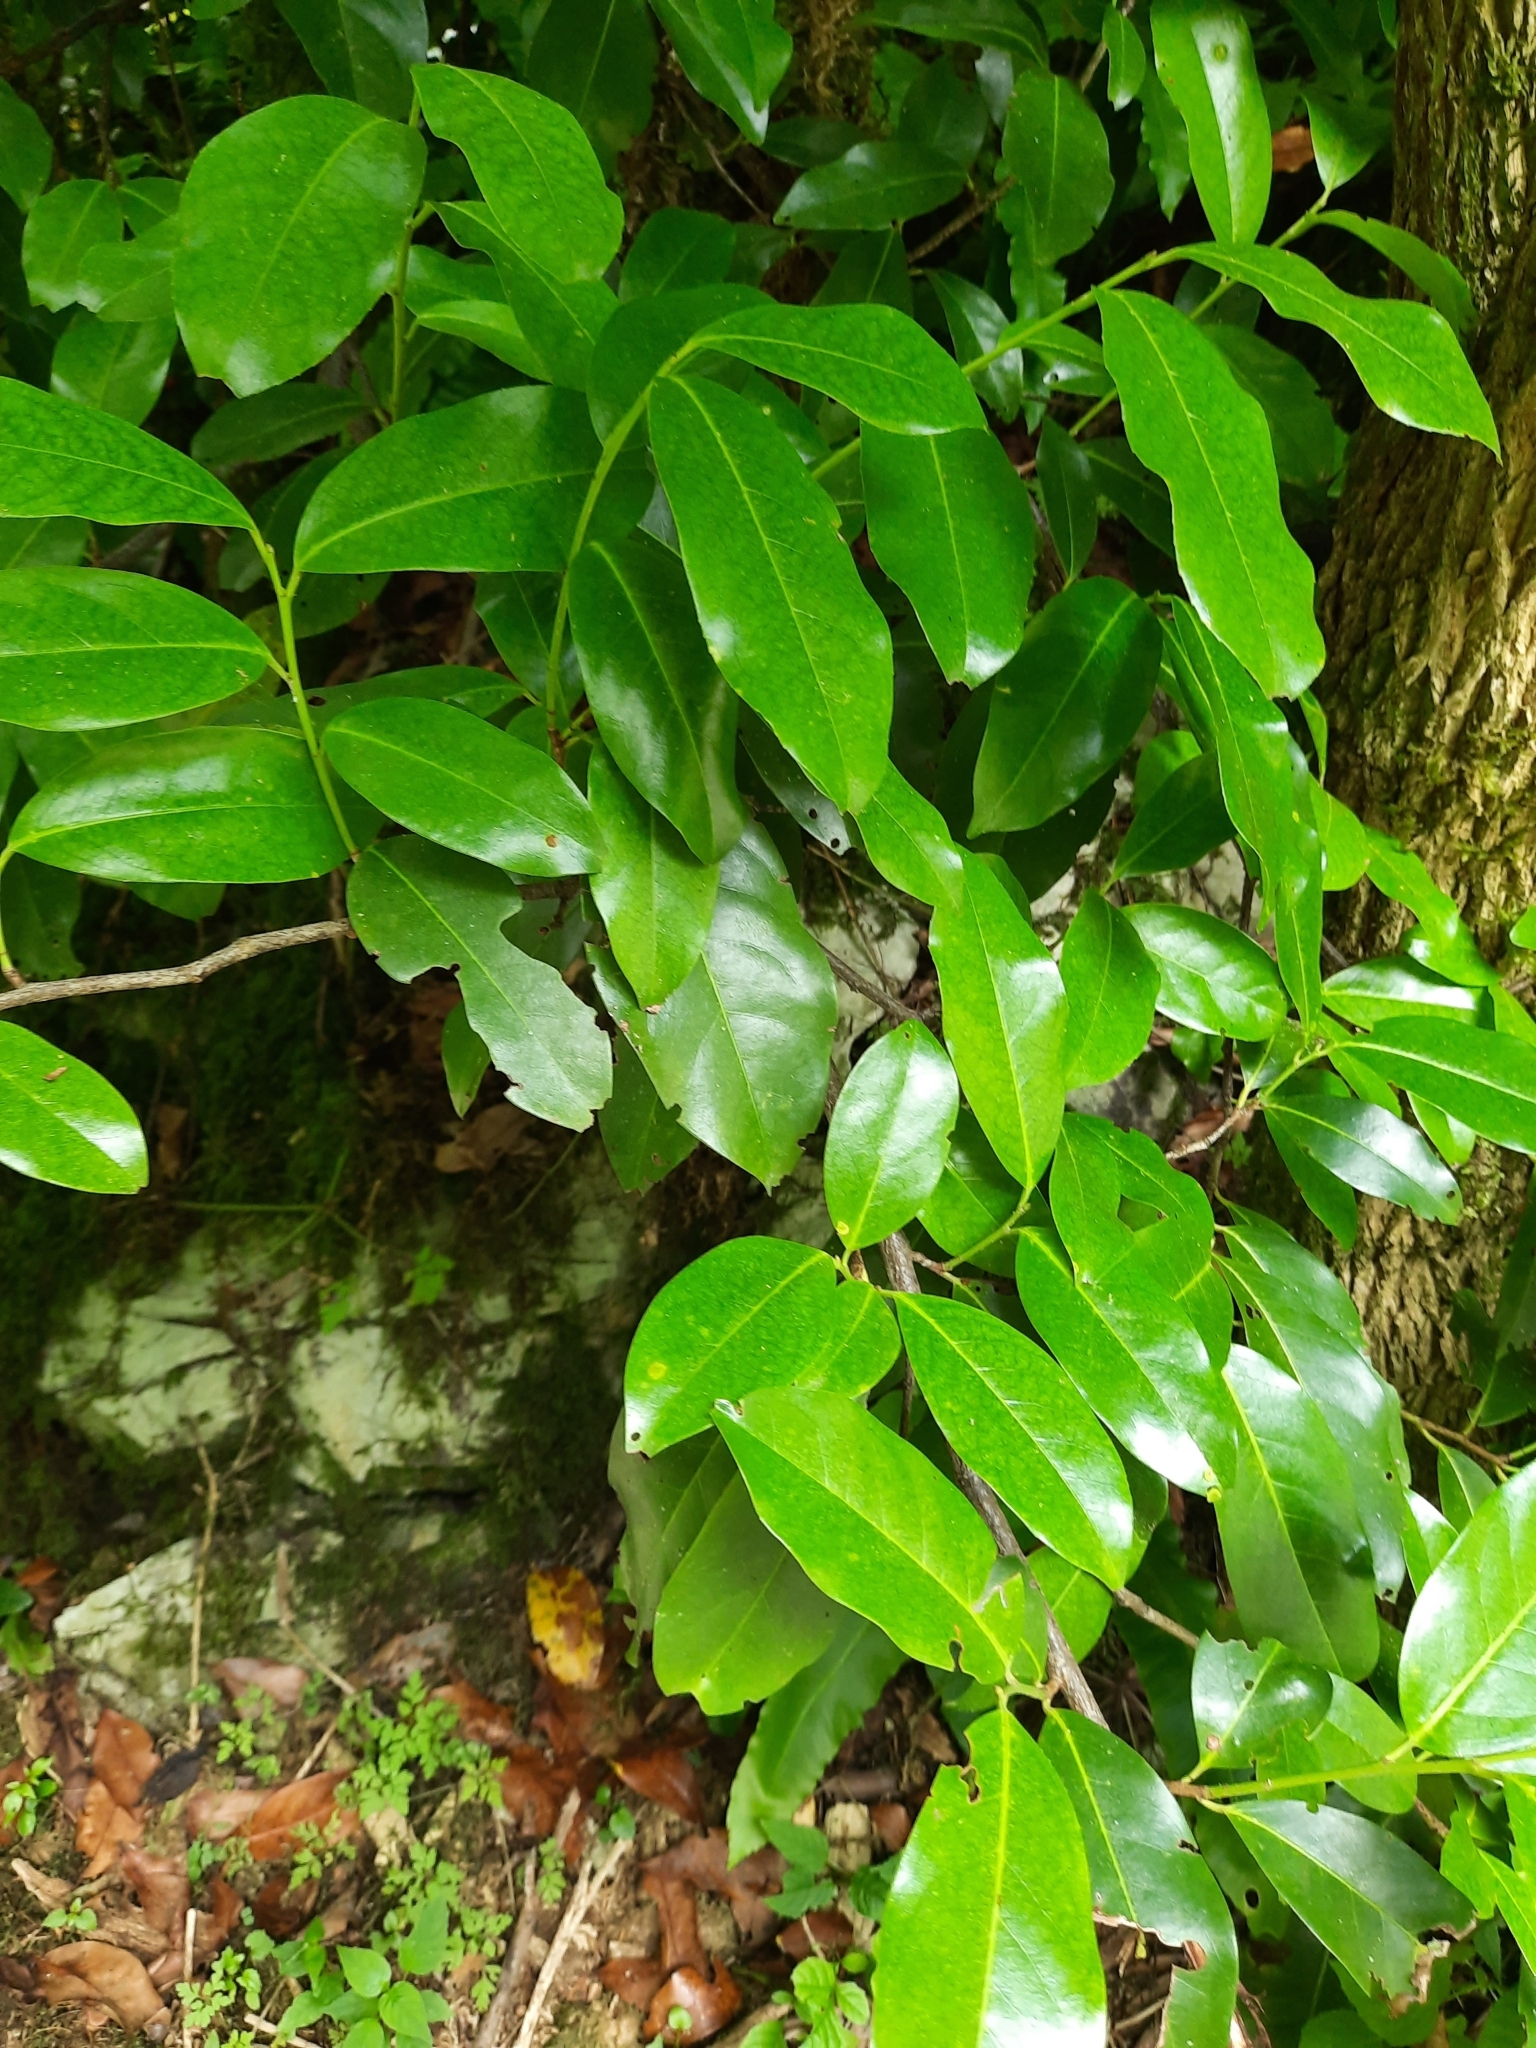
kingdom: Plantae
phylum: Tracheophyta
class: Magnoliopsida
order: Rosales
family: Rosaceae
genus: Prunus
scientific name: Prunus laurocerasus
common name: Cherry laurel
